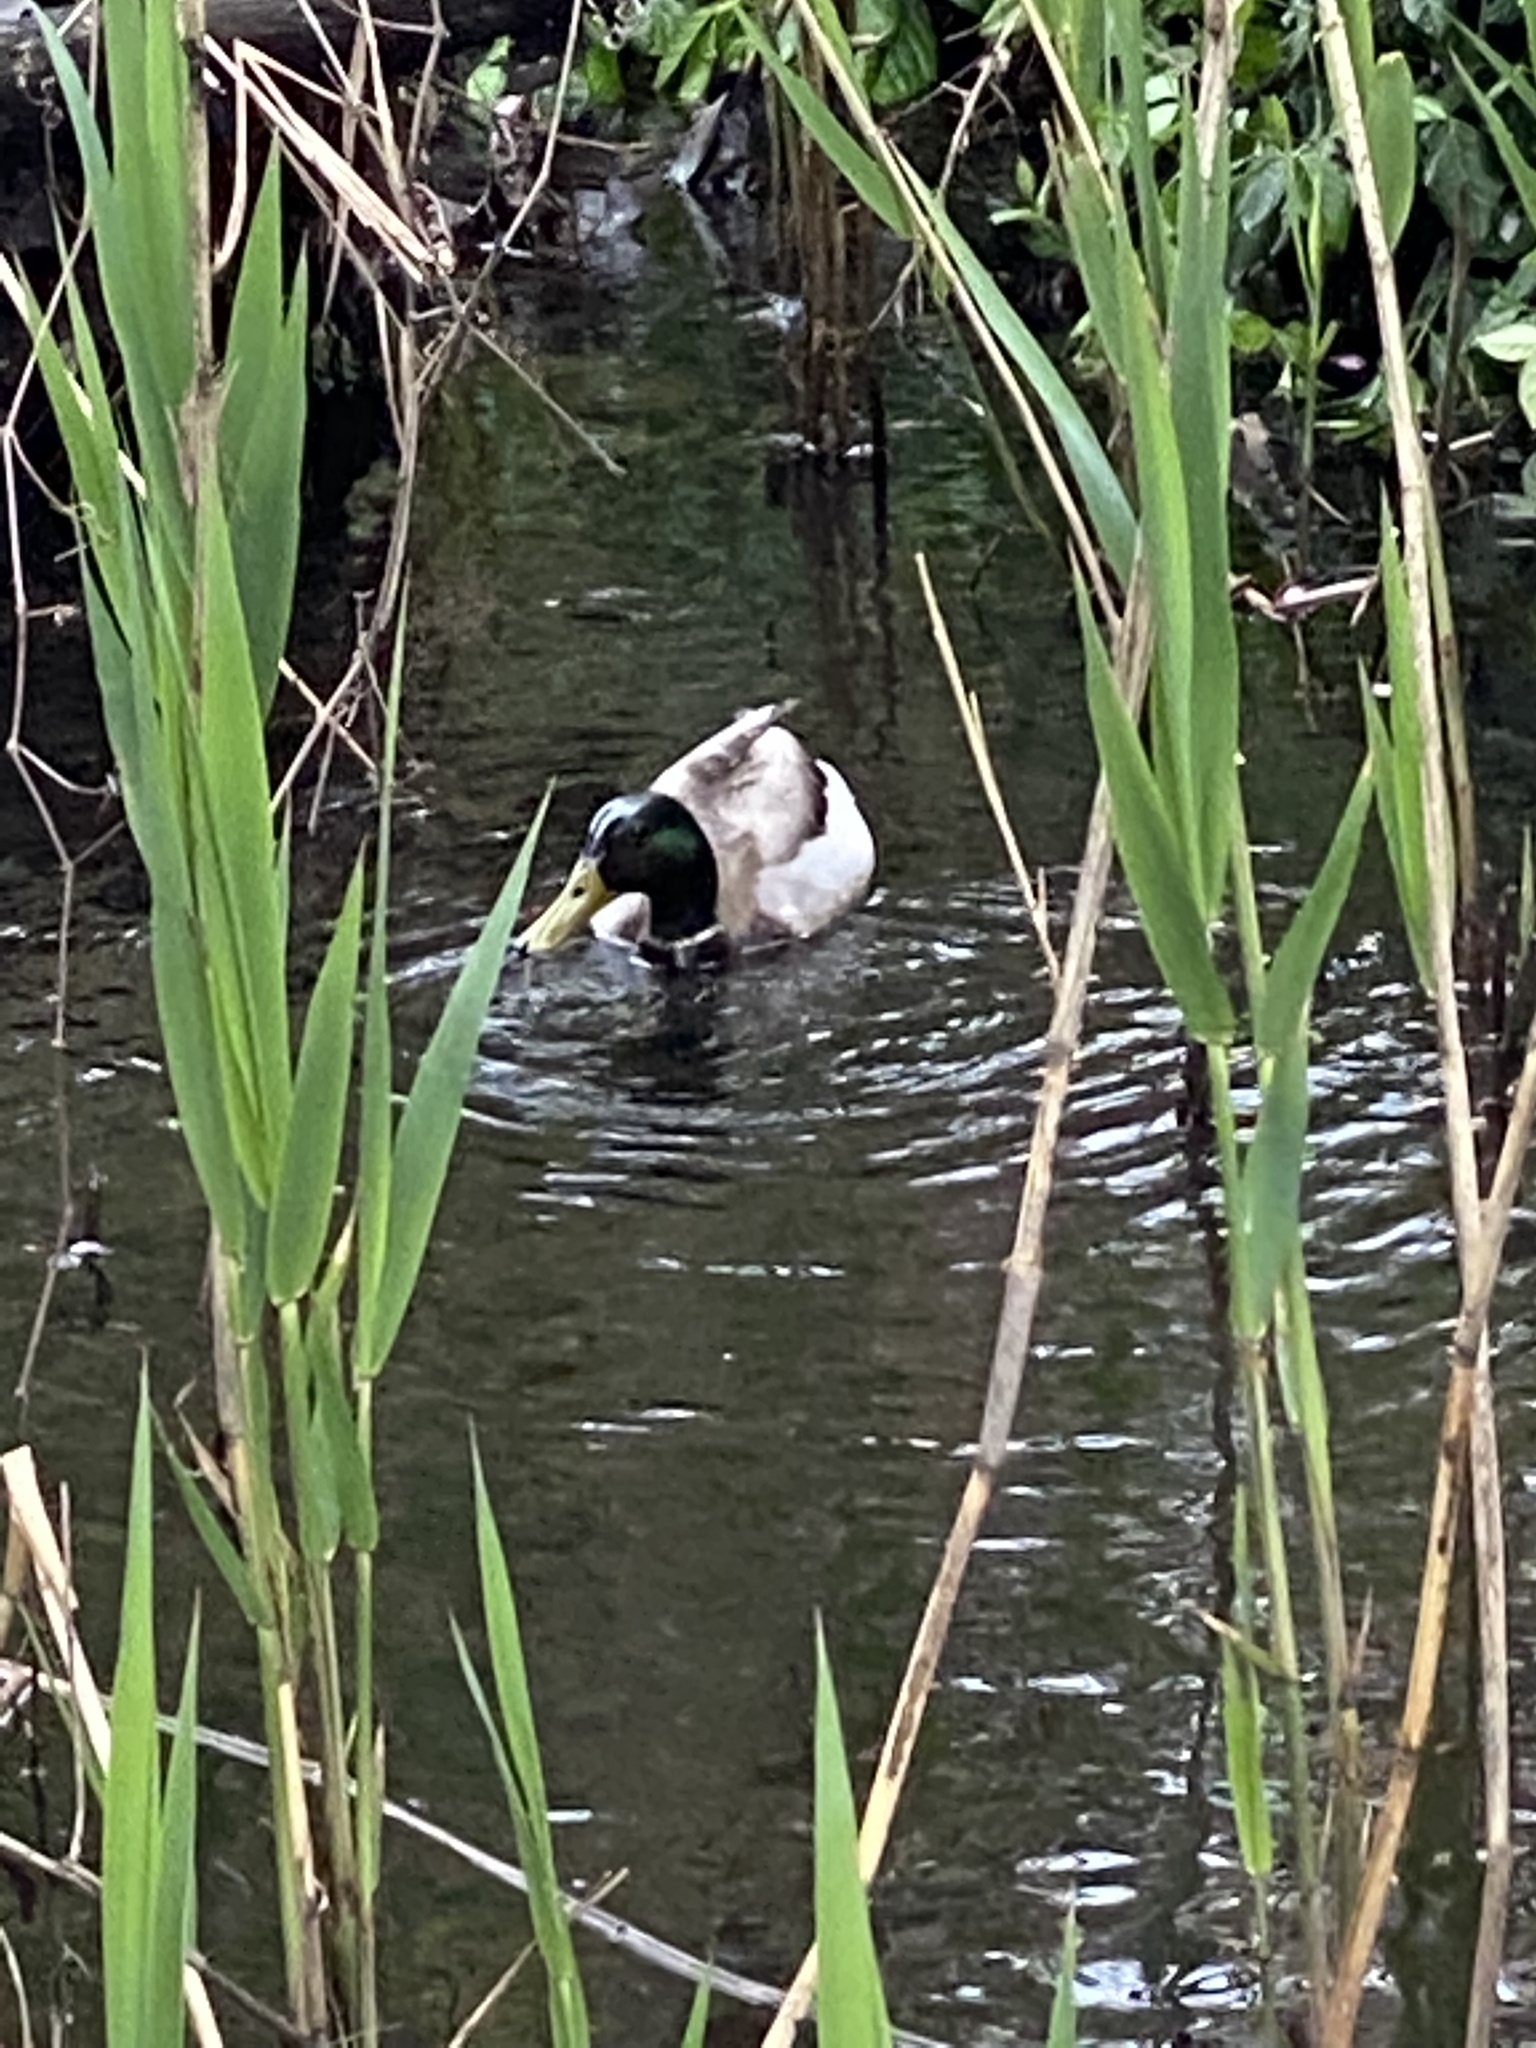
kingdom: Animalia
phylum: Chordata
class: Aves
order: Anseriformes
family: Anatidae
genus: Anas
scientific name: Anas platyrhynchos
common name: Mallard
